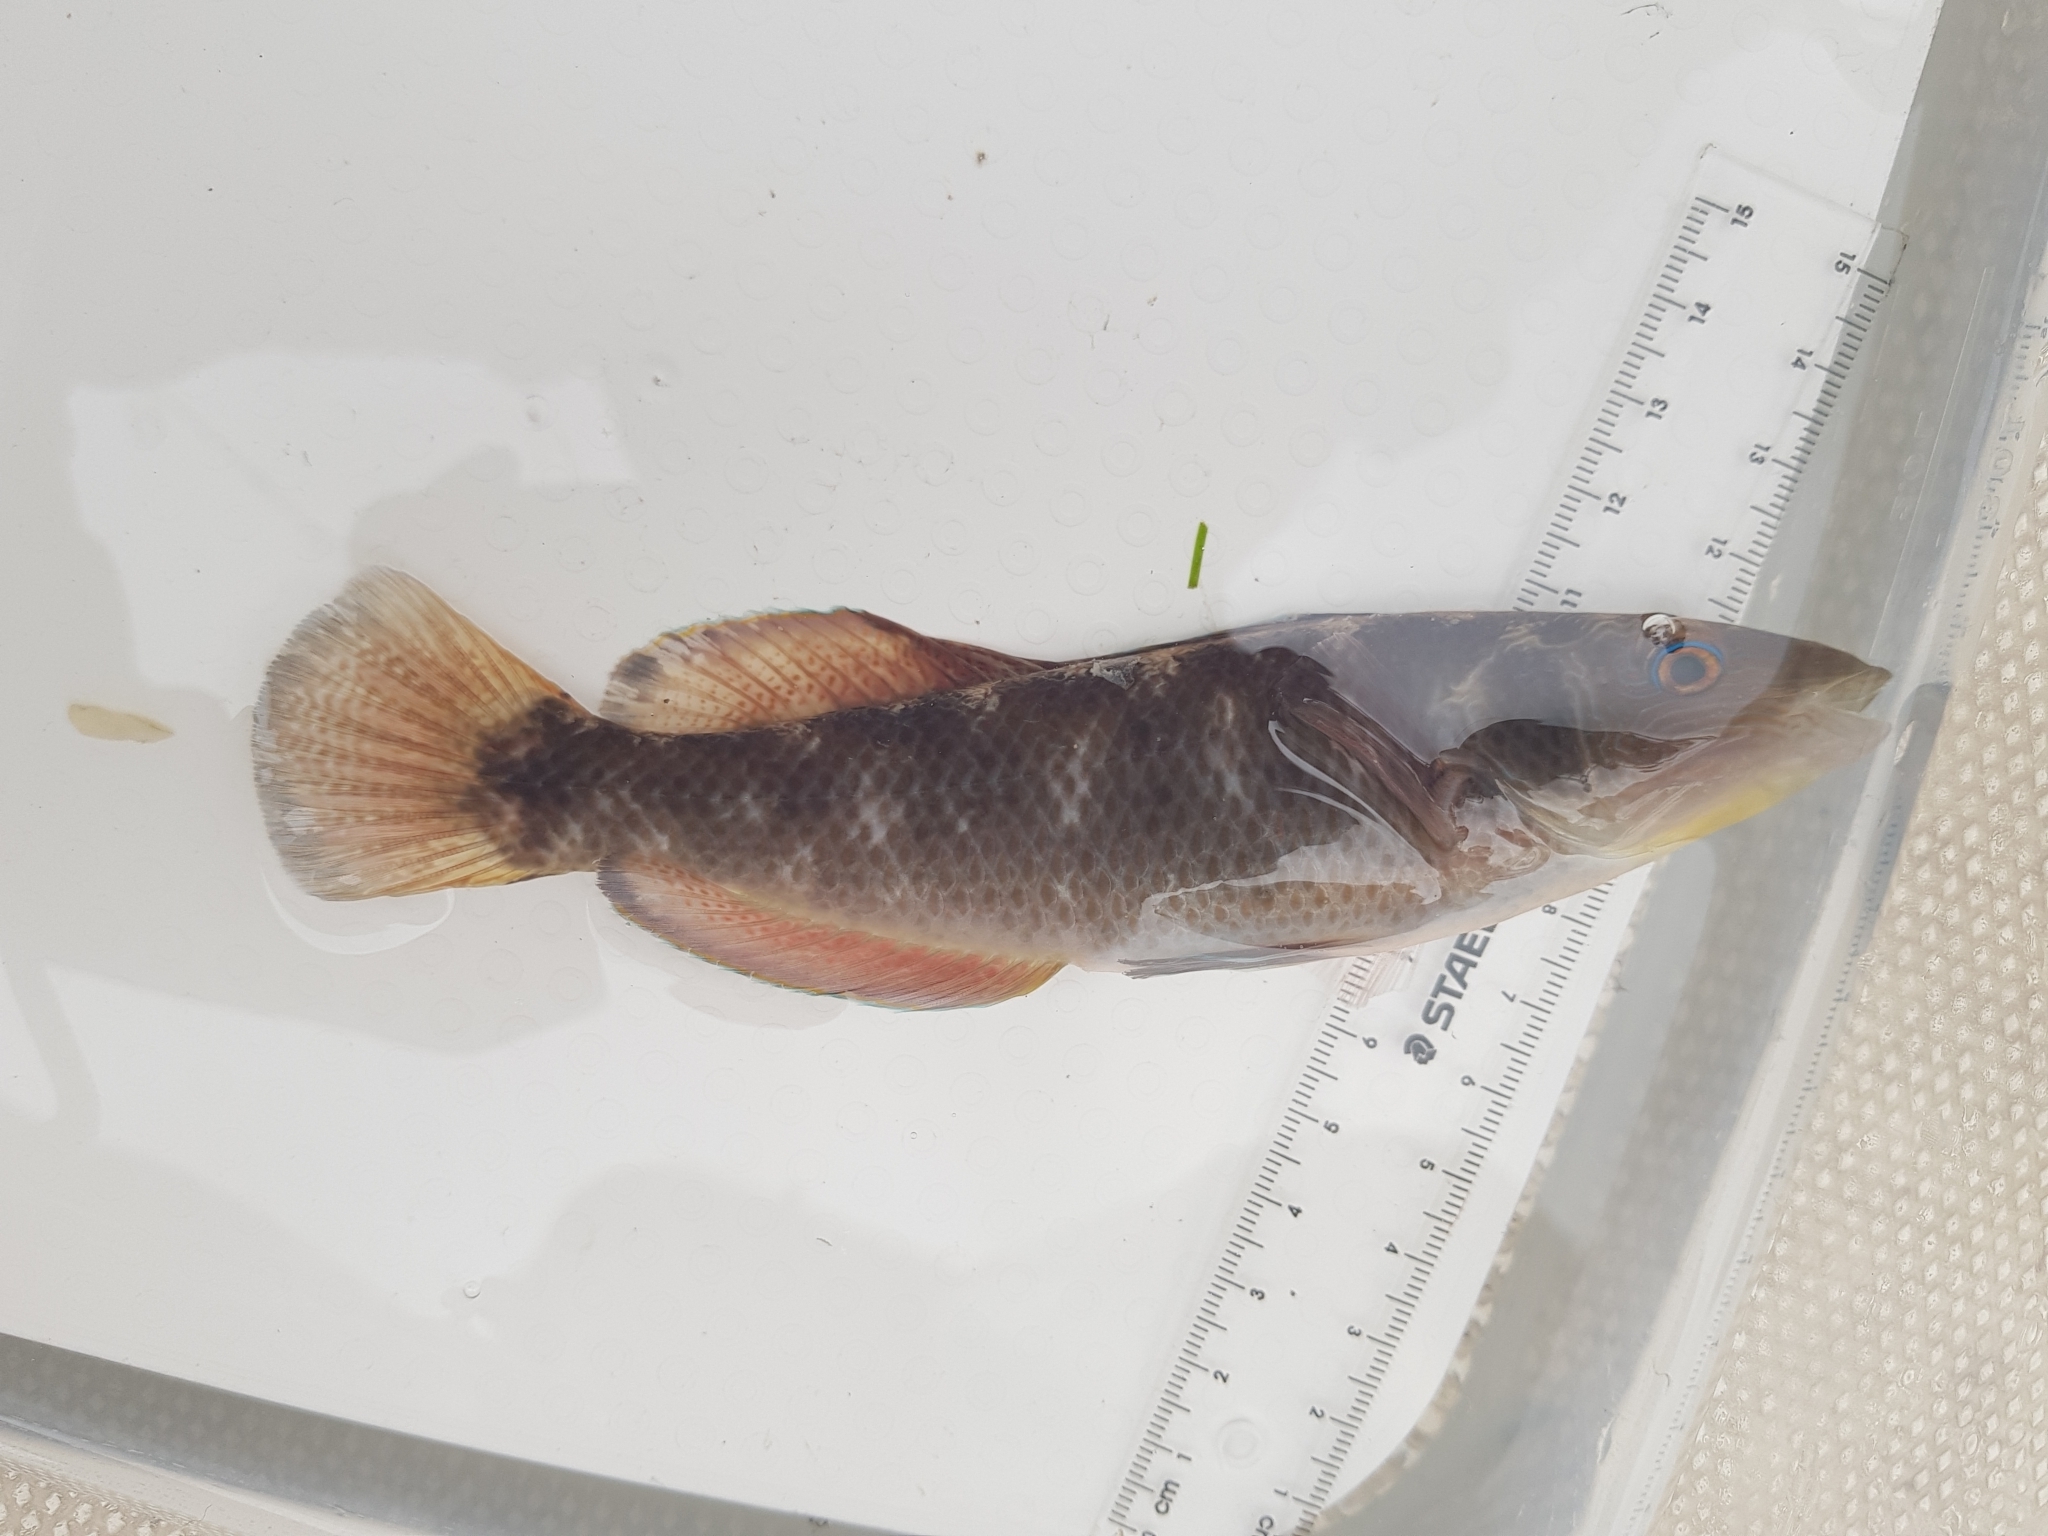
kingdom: Animalia
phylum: Chordata
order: Perciformes
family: Odacidae
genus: Neoodax
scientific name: Neoodax balteatus
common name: Ground mullet
